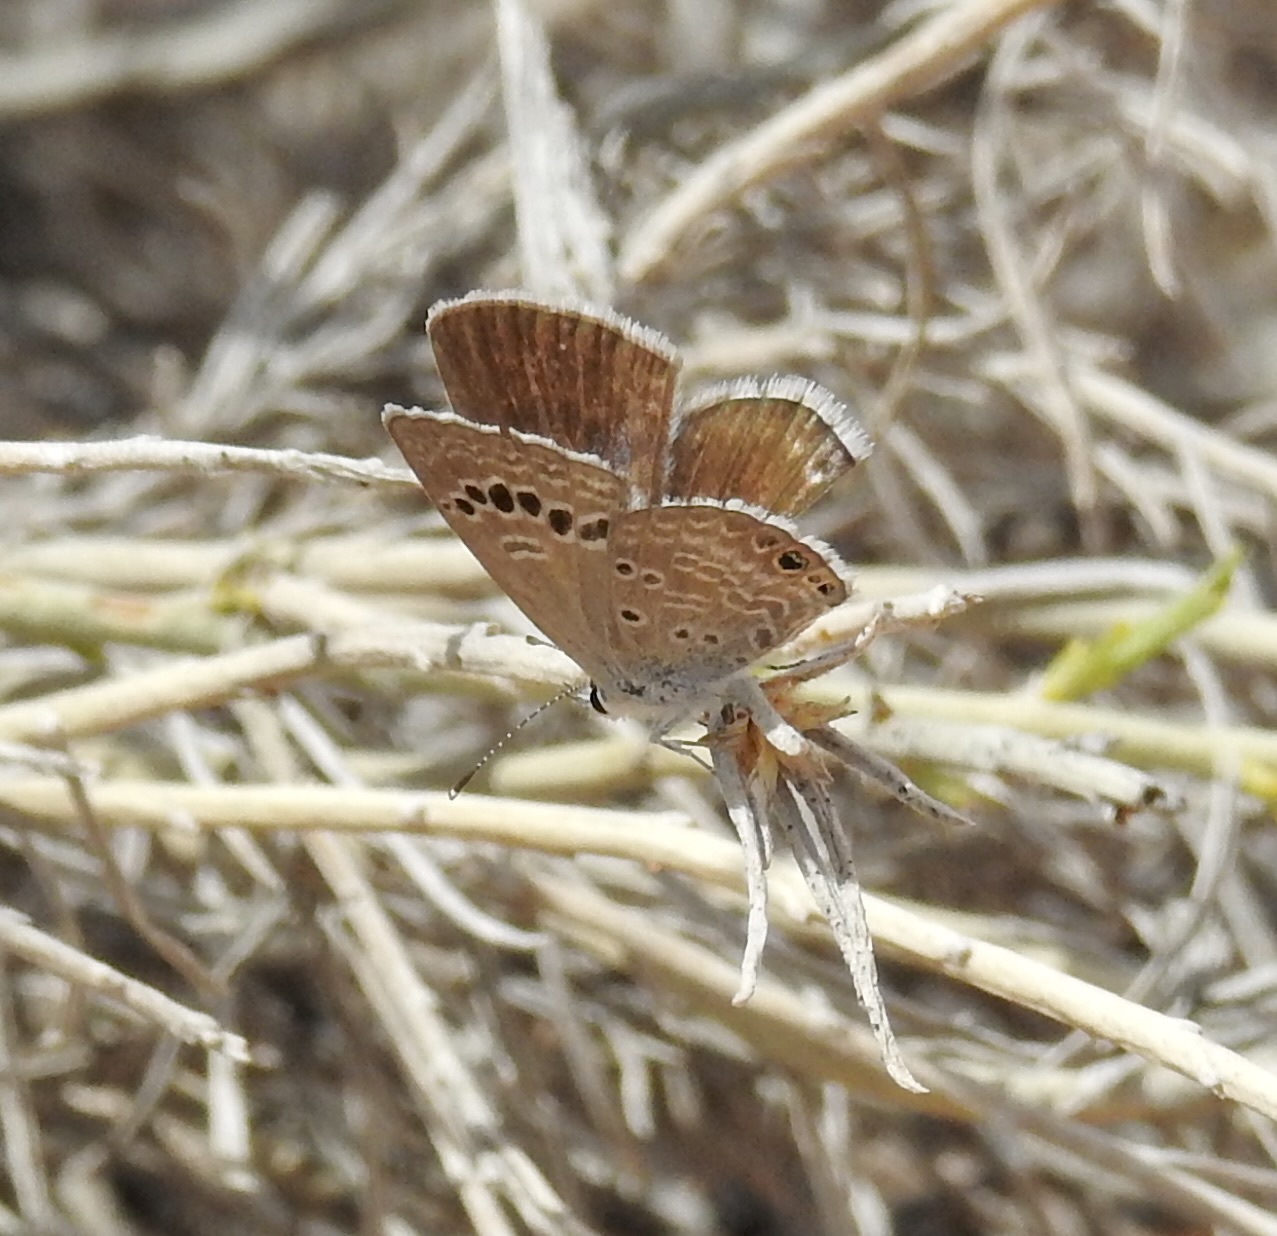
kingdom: Animalia
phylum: Arthropoda
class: Insecta
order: Lepidoptera
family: Lycaenidae
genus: Echinargus
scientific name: Echinargus isola
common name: Reakirt's blue
